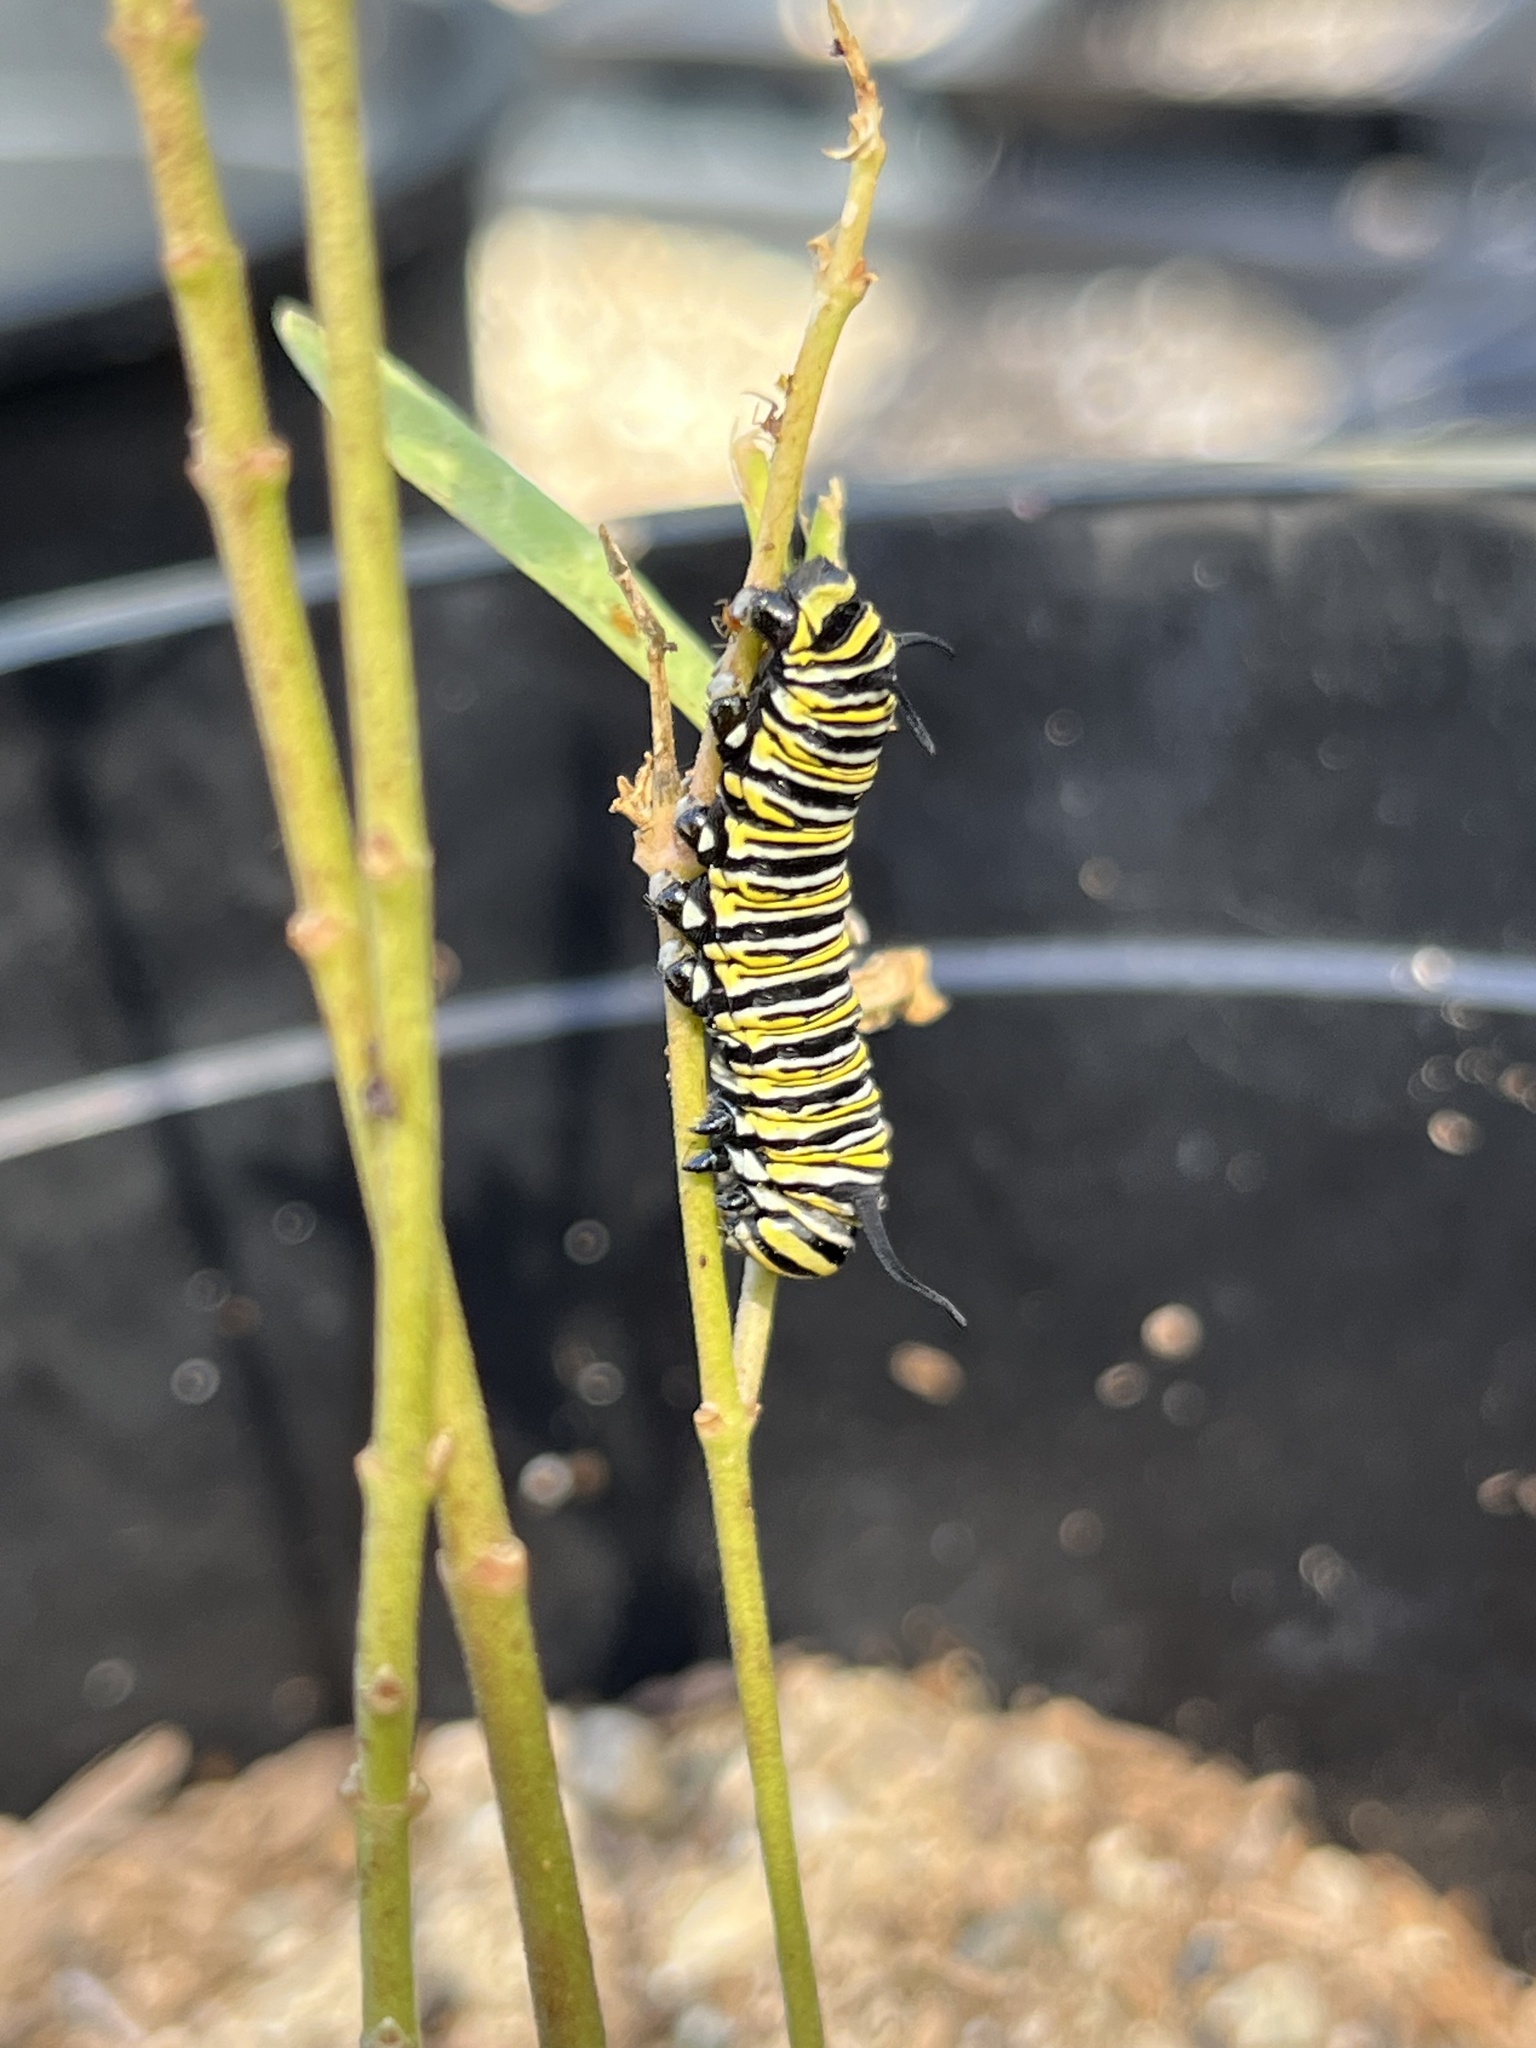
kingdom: Animalia
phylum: Arthropoda
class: Insecta
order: Lepidoptera
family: Nymphalidae
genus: Danaus
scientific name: Danaus plexippus
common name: Monarch
